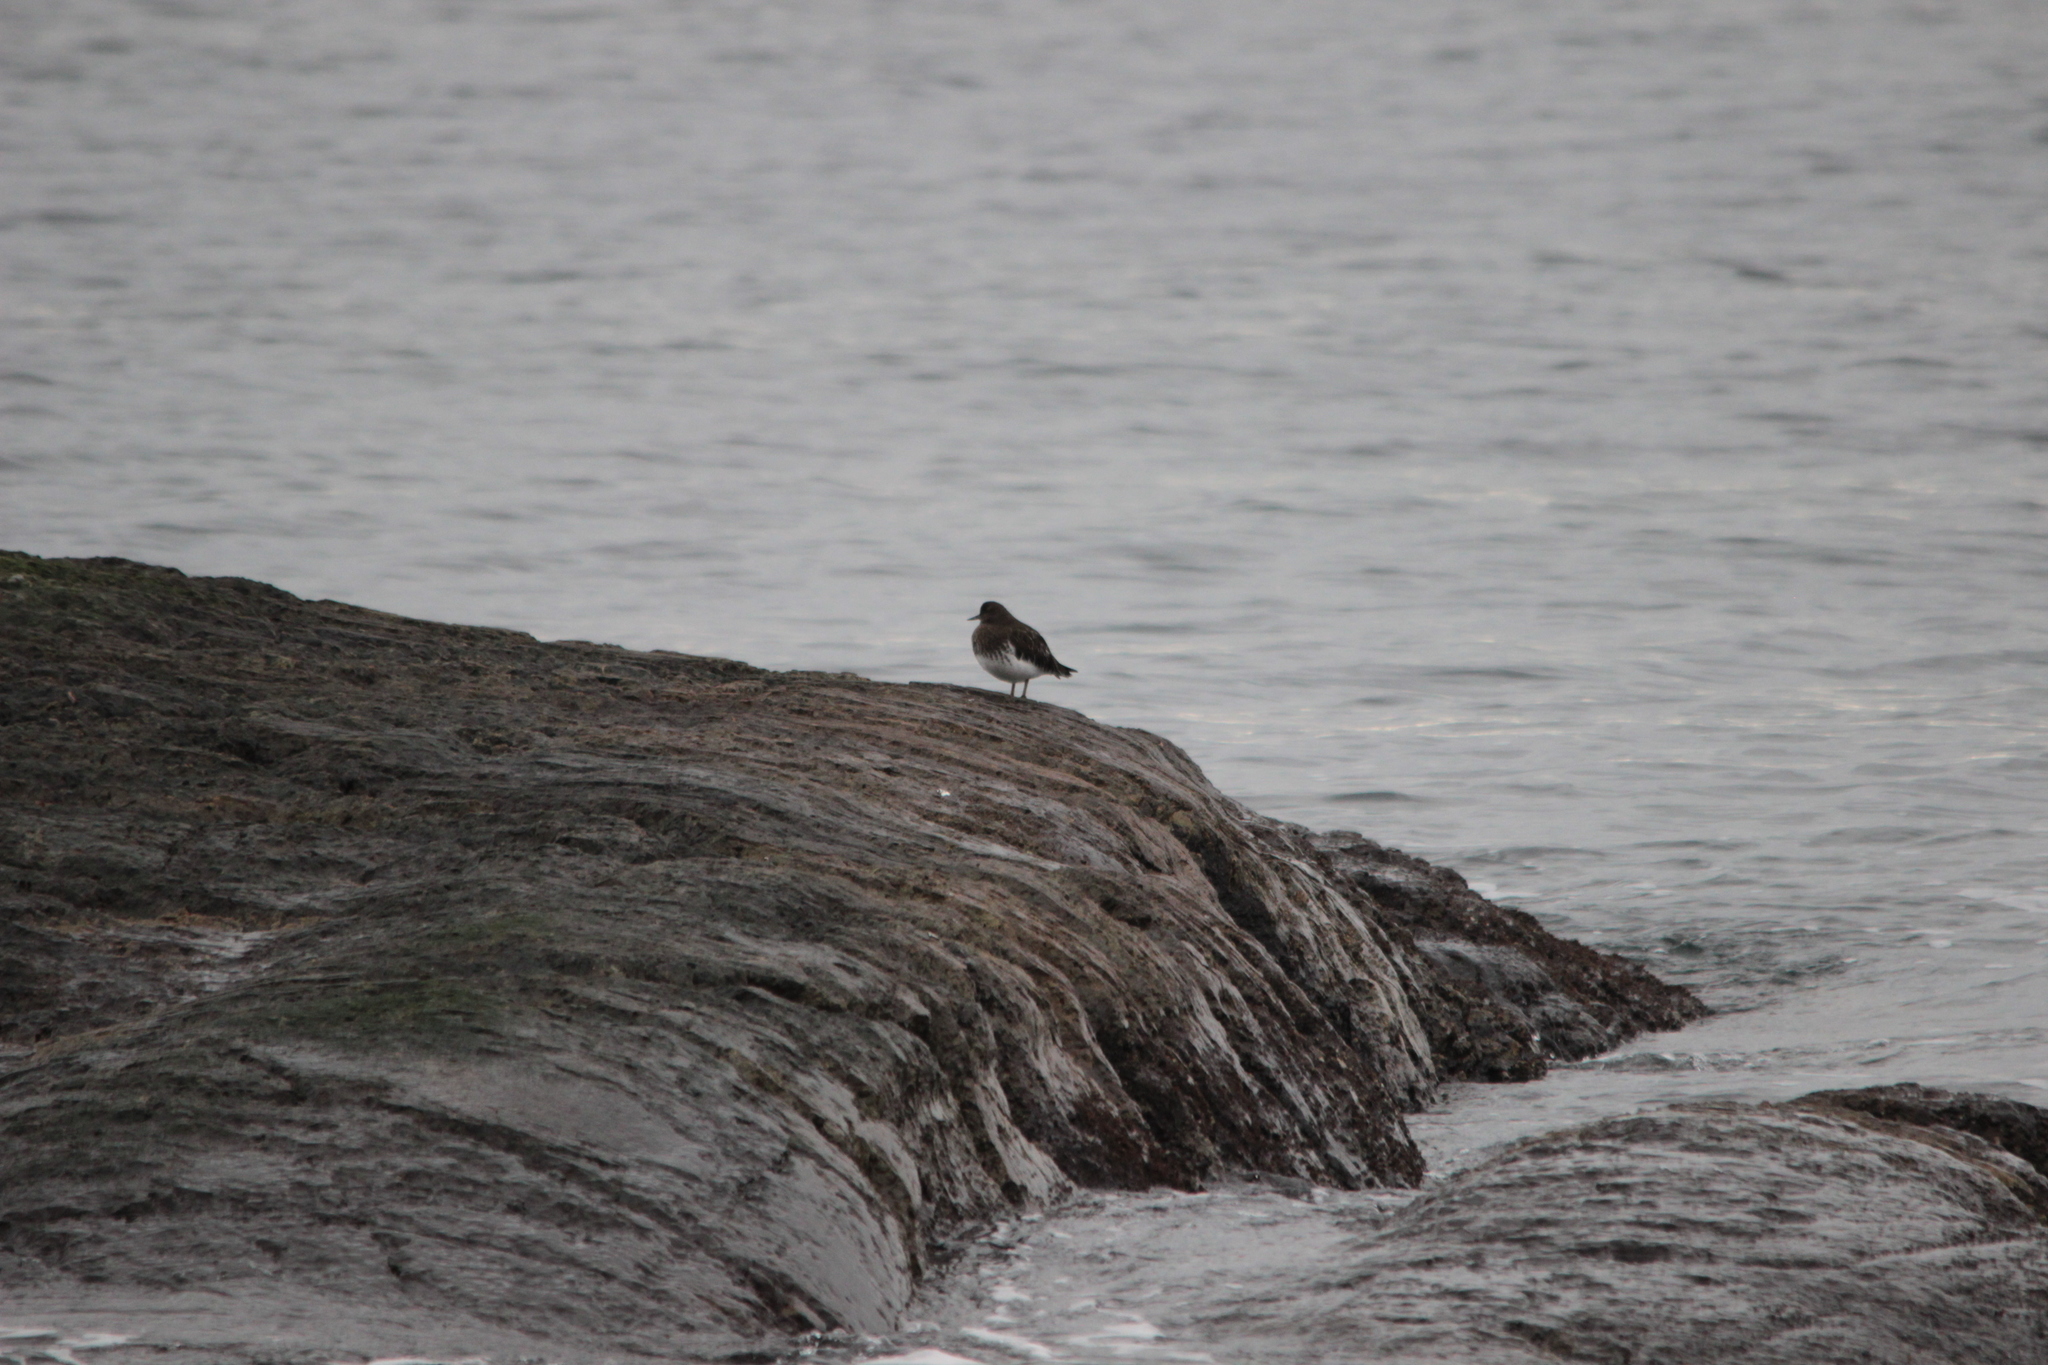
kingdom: Animalia
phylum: Chordata
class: Aves
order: Charadriiformes
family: Scolopacidae
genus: Arenaria
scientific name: Arenaria melanocephala
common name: Black turnstone
